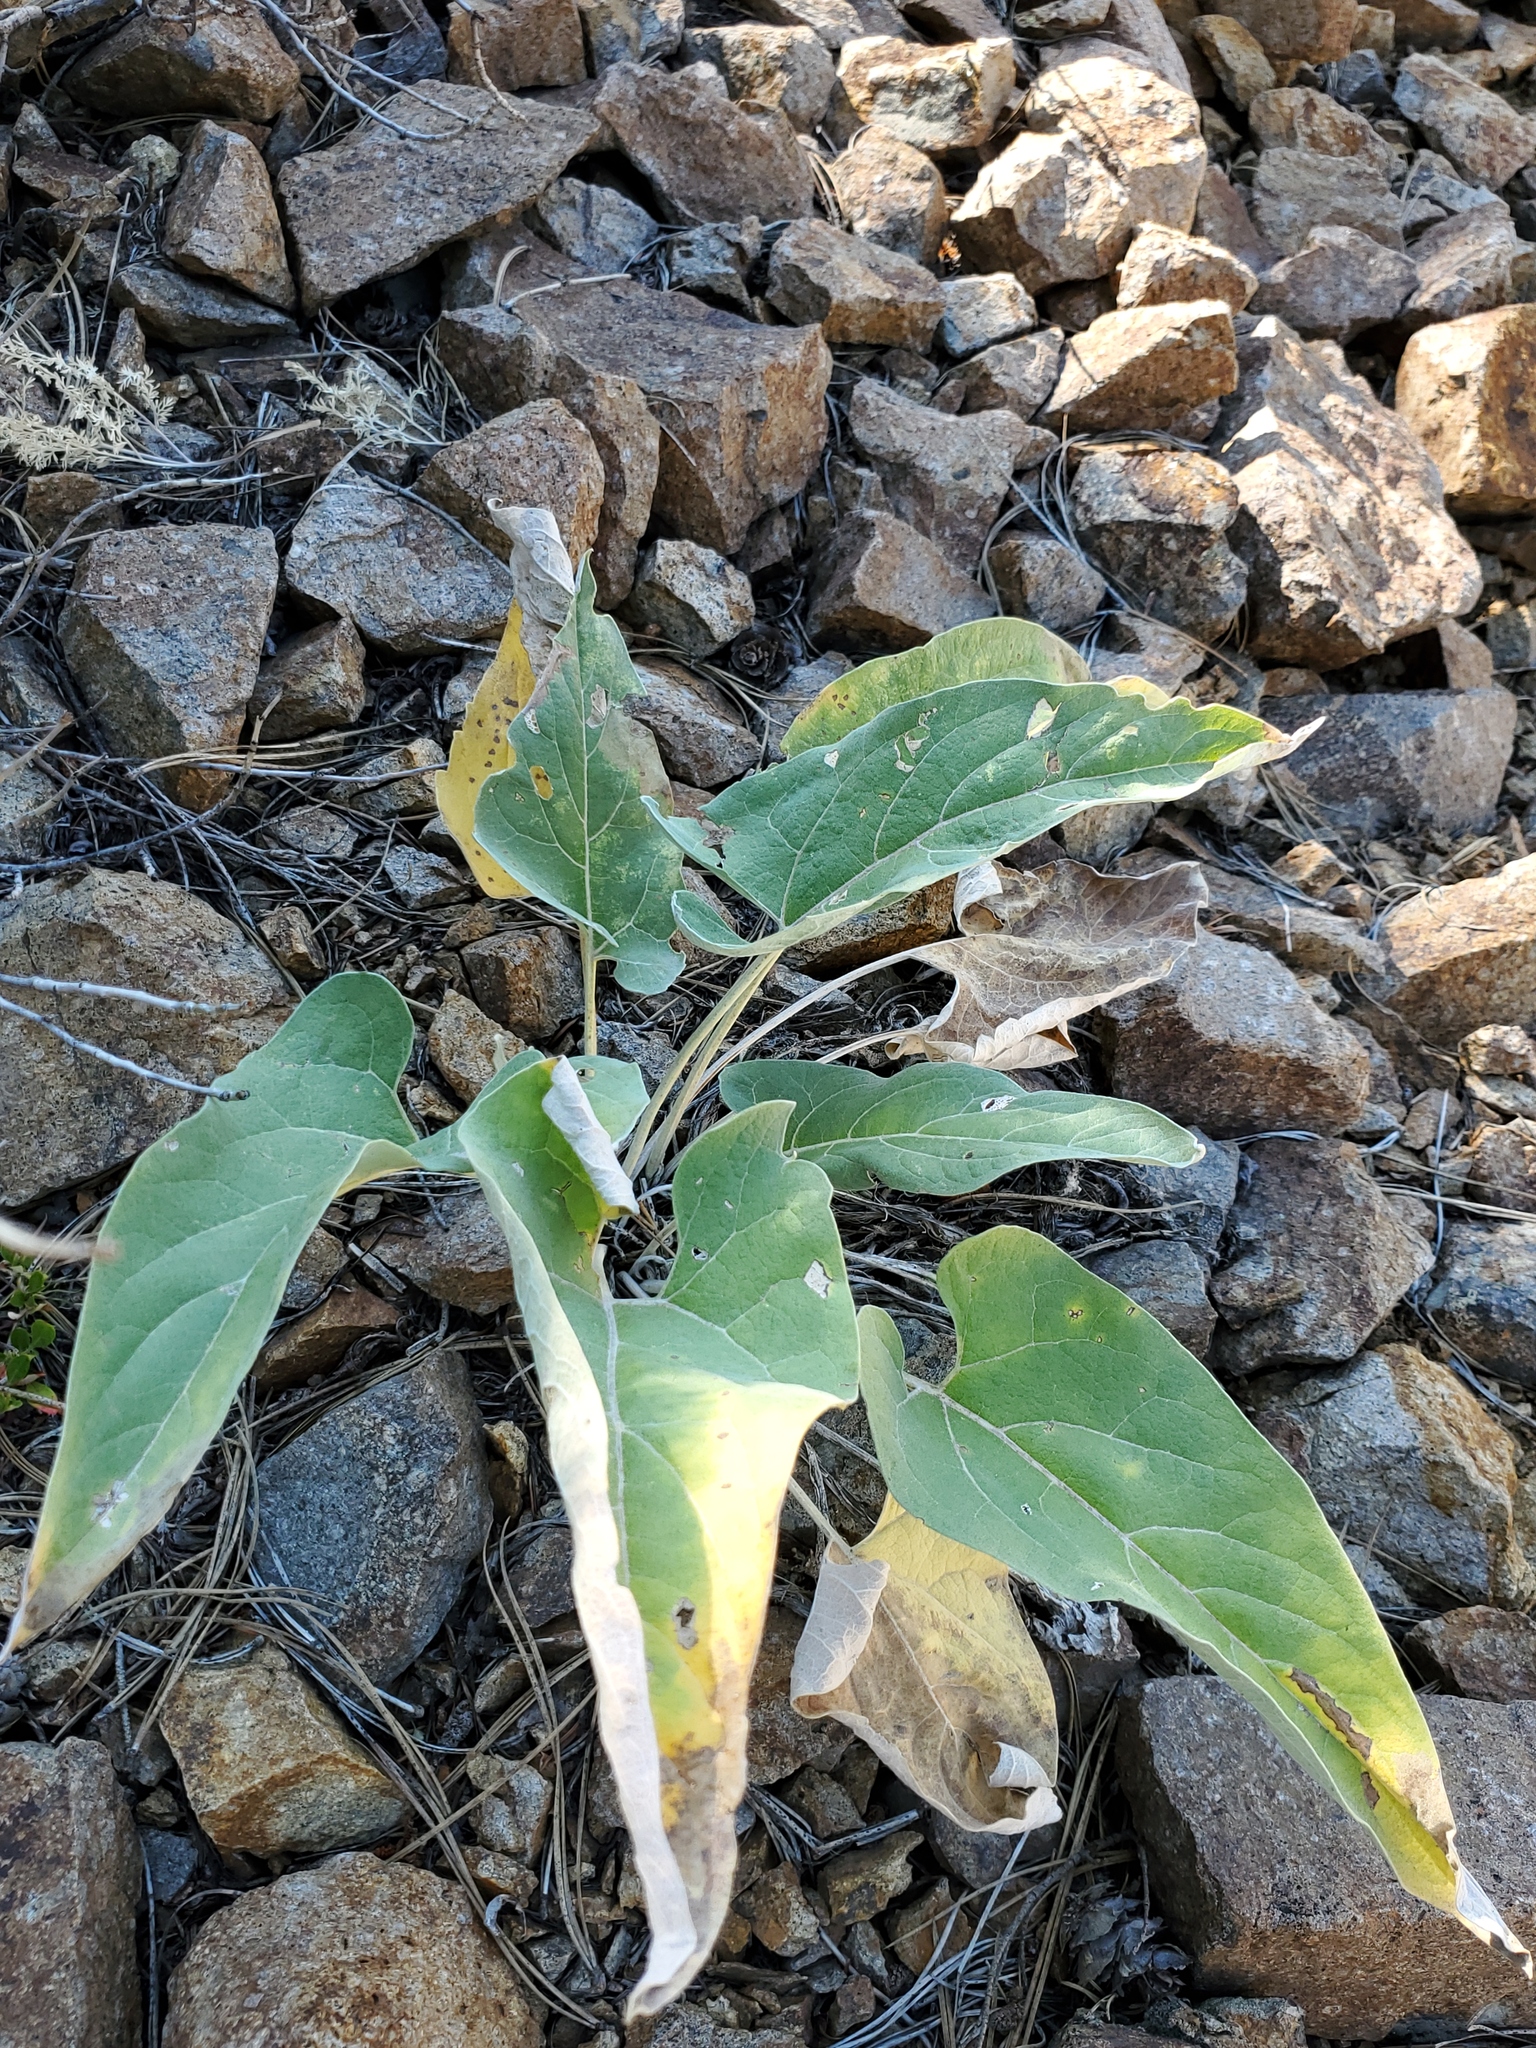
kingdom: Plantae
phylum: Tracheophyta
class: Magnoliopsida
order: Asterales
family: Asteraceae
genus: Wyethia
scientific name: Wyethia sagittata
